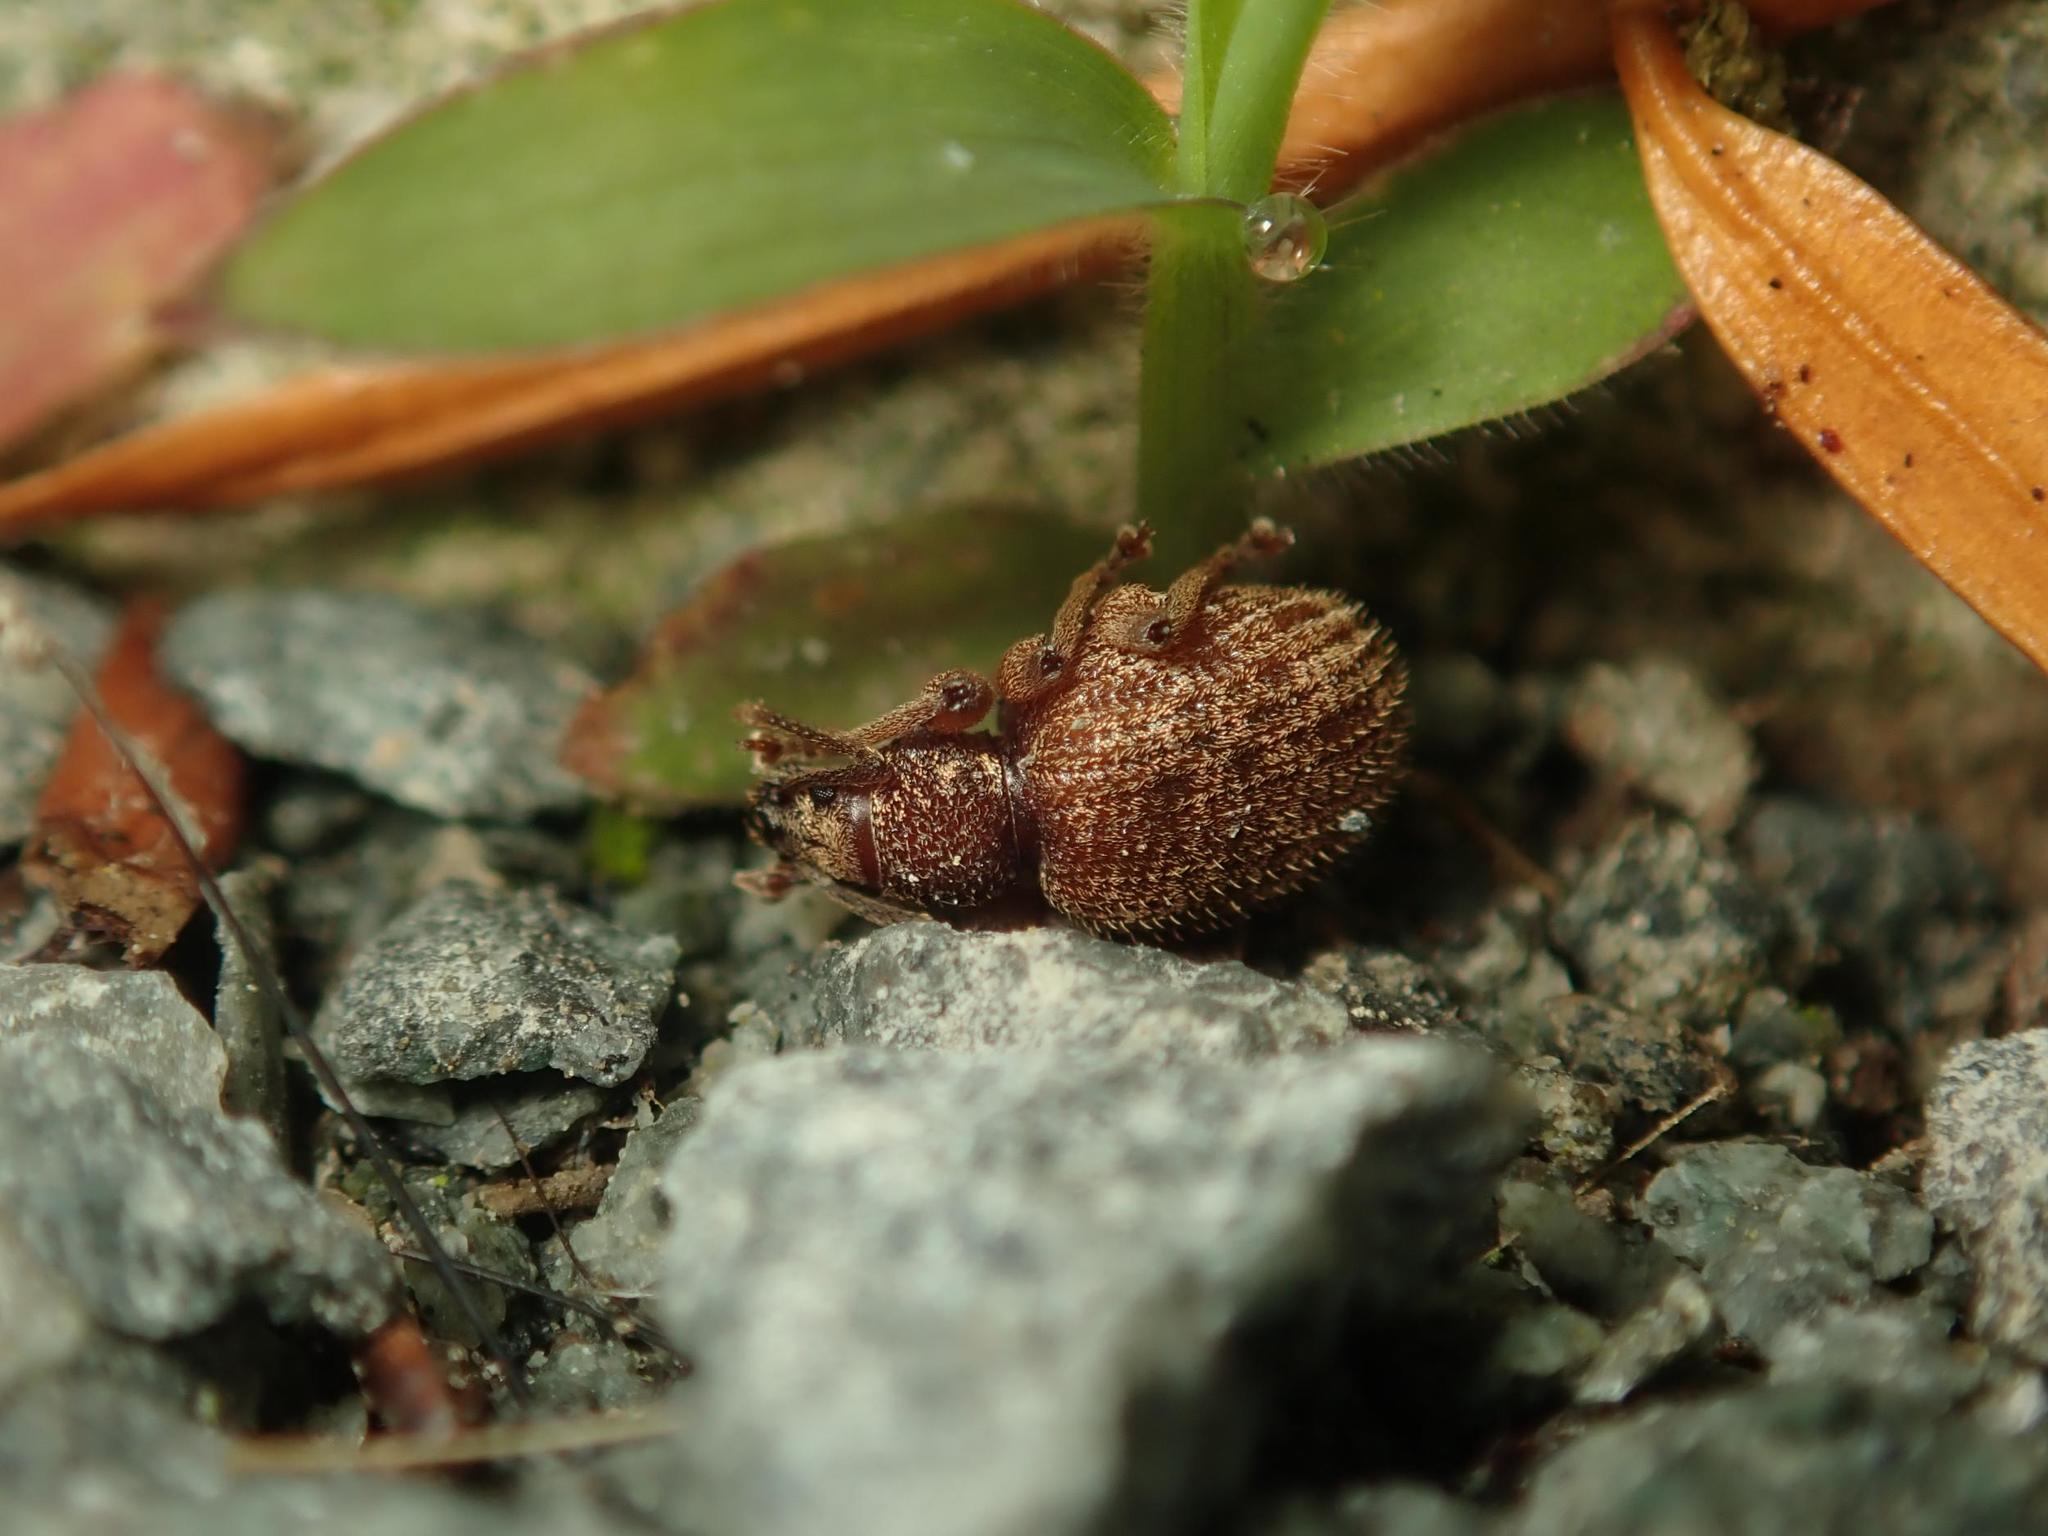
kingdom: Animalia
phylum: Arthropoda
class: Insecta
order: Coleoptera
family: Curculionidae
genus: Otiorhynchus
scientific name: Otiorhynchus crataegi
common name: Privet weevil
